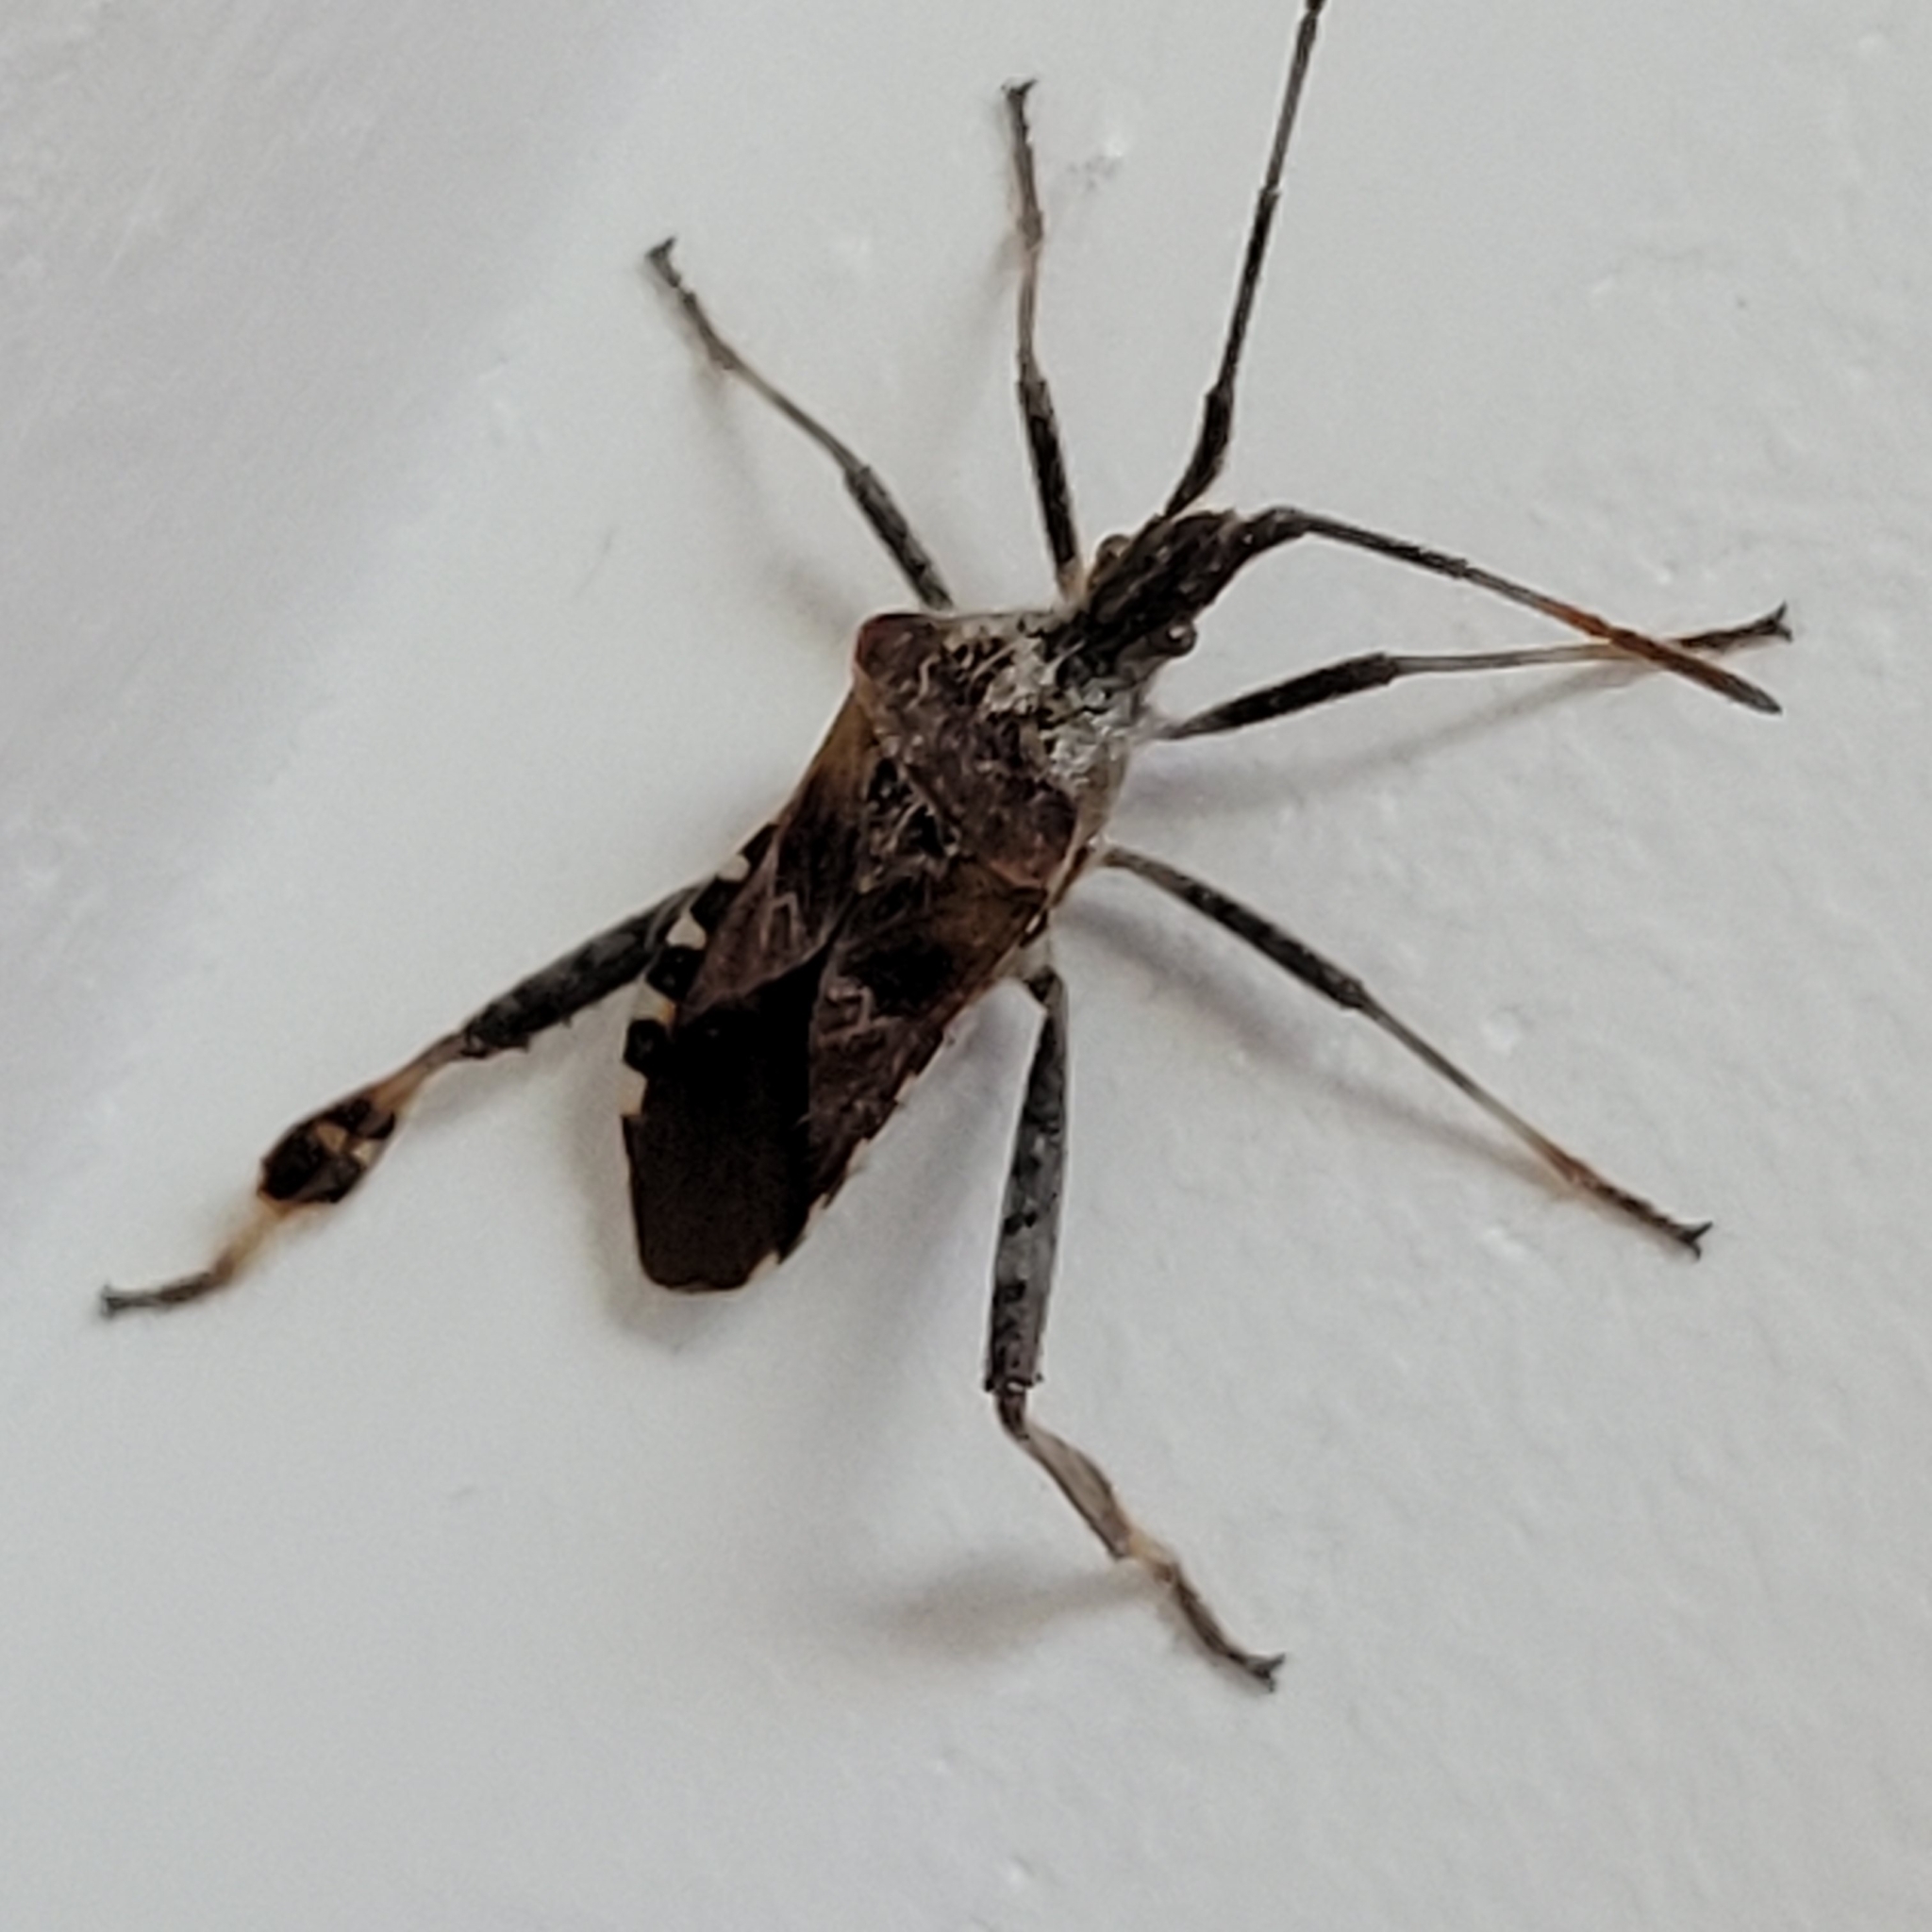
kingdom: Animalia
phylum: Arthropoda
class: Insecta
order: Hemiptera
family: Coreidae
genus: Leptoglossus
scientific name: Leptoglossus occidentalis
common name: Western conifer-seed bug
